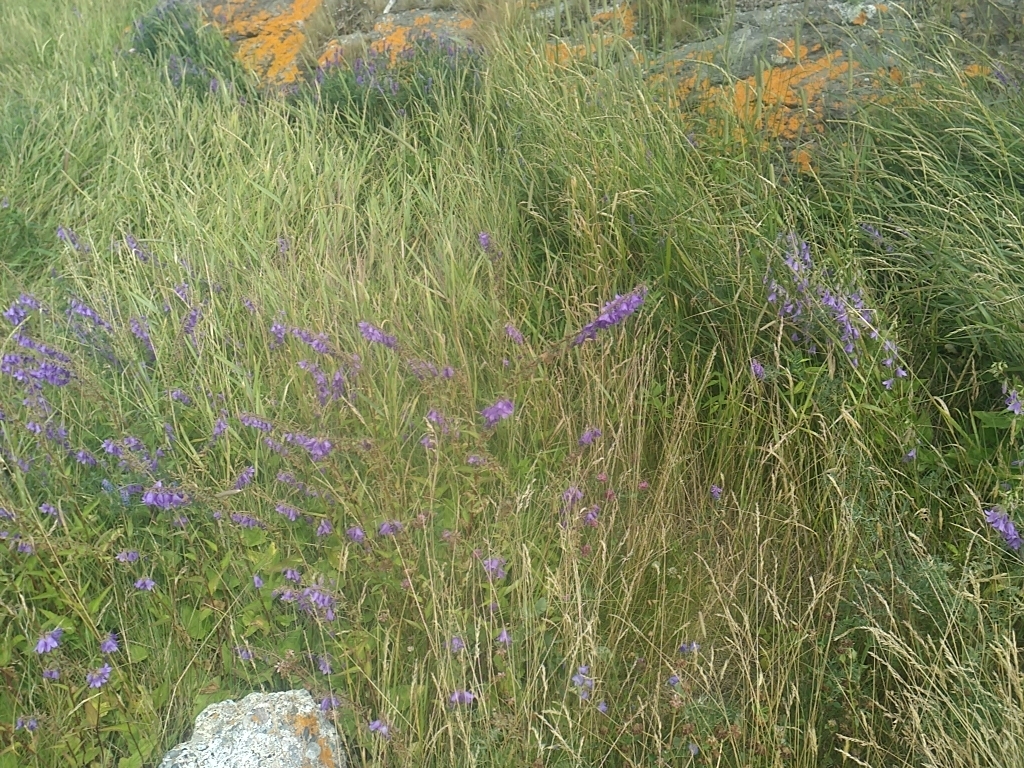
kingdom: Plantae
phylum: Tracheophyta
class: Magnoliopsida
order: Asterales
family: Campanulaceae
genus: Campanula
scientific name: Campanula rapunculoides
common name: Creeping bellflower
